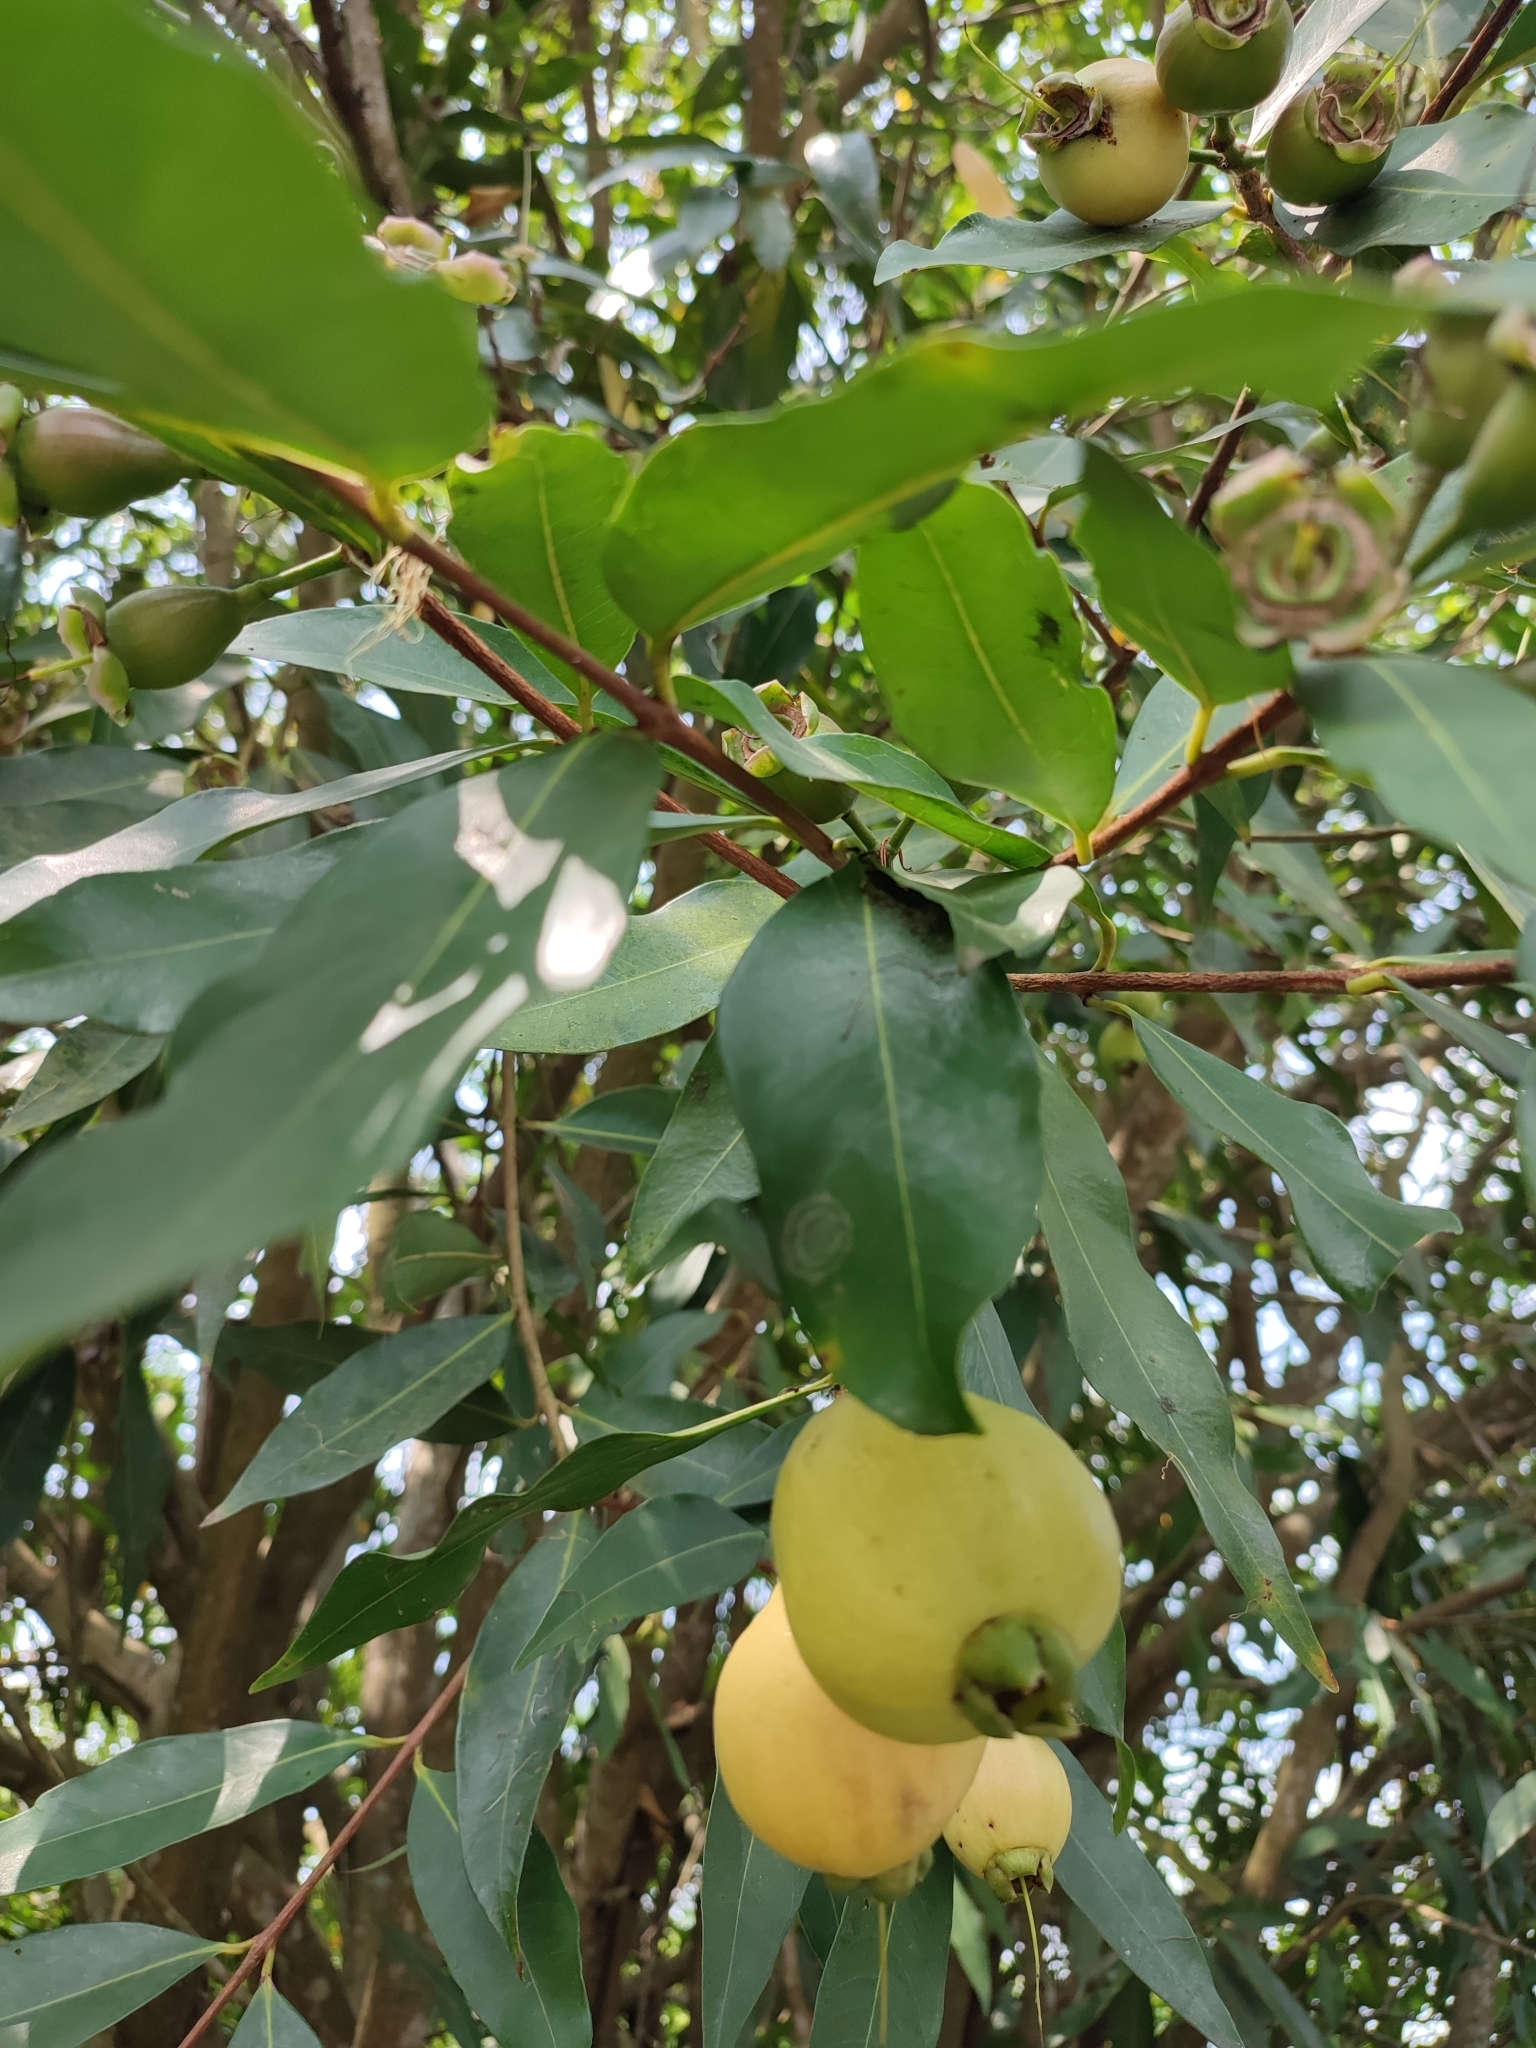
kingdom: Plantae
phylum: Tracheophyta
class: Magnoliopsida
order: Myrtales
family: Myrtaceae
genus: Syzygium
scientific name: Syzygium jambos
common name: Malabar plum
